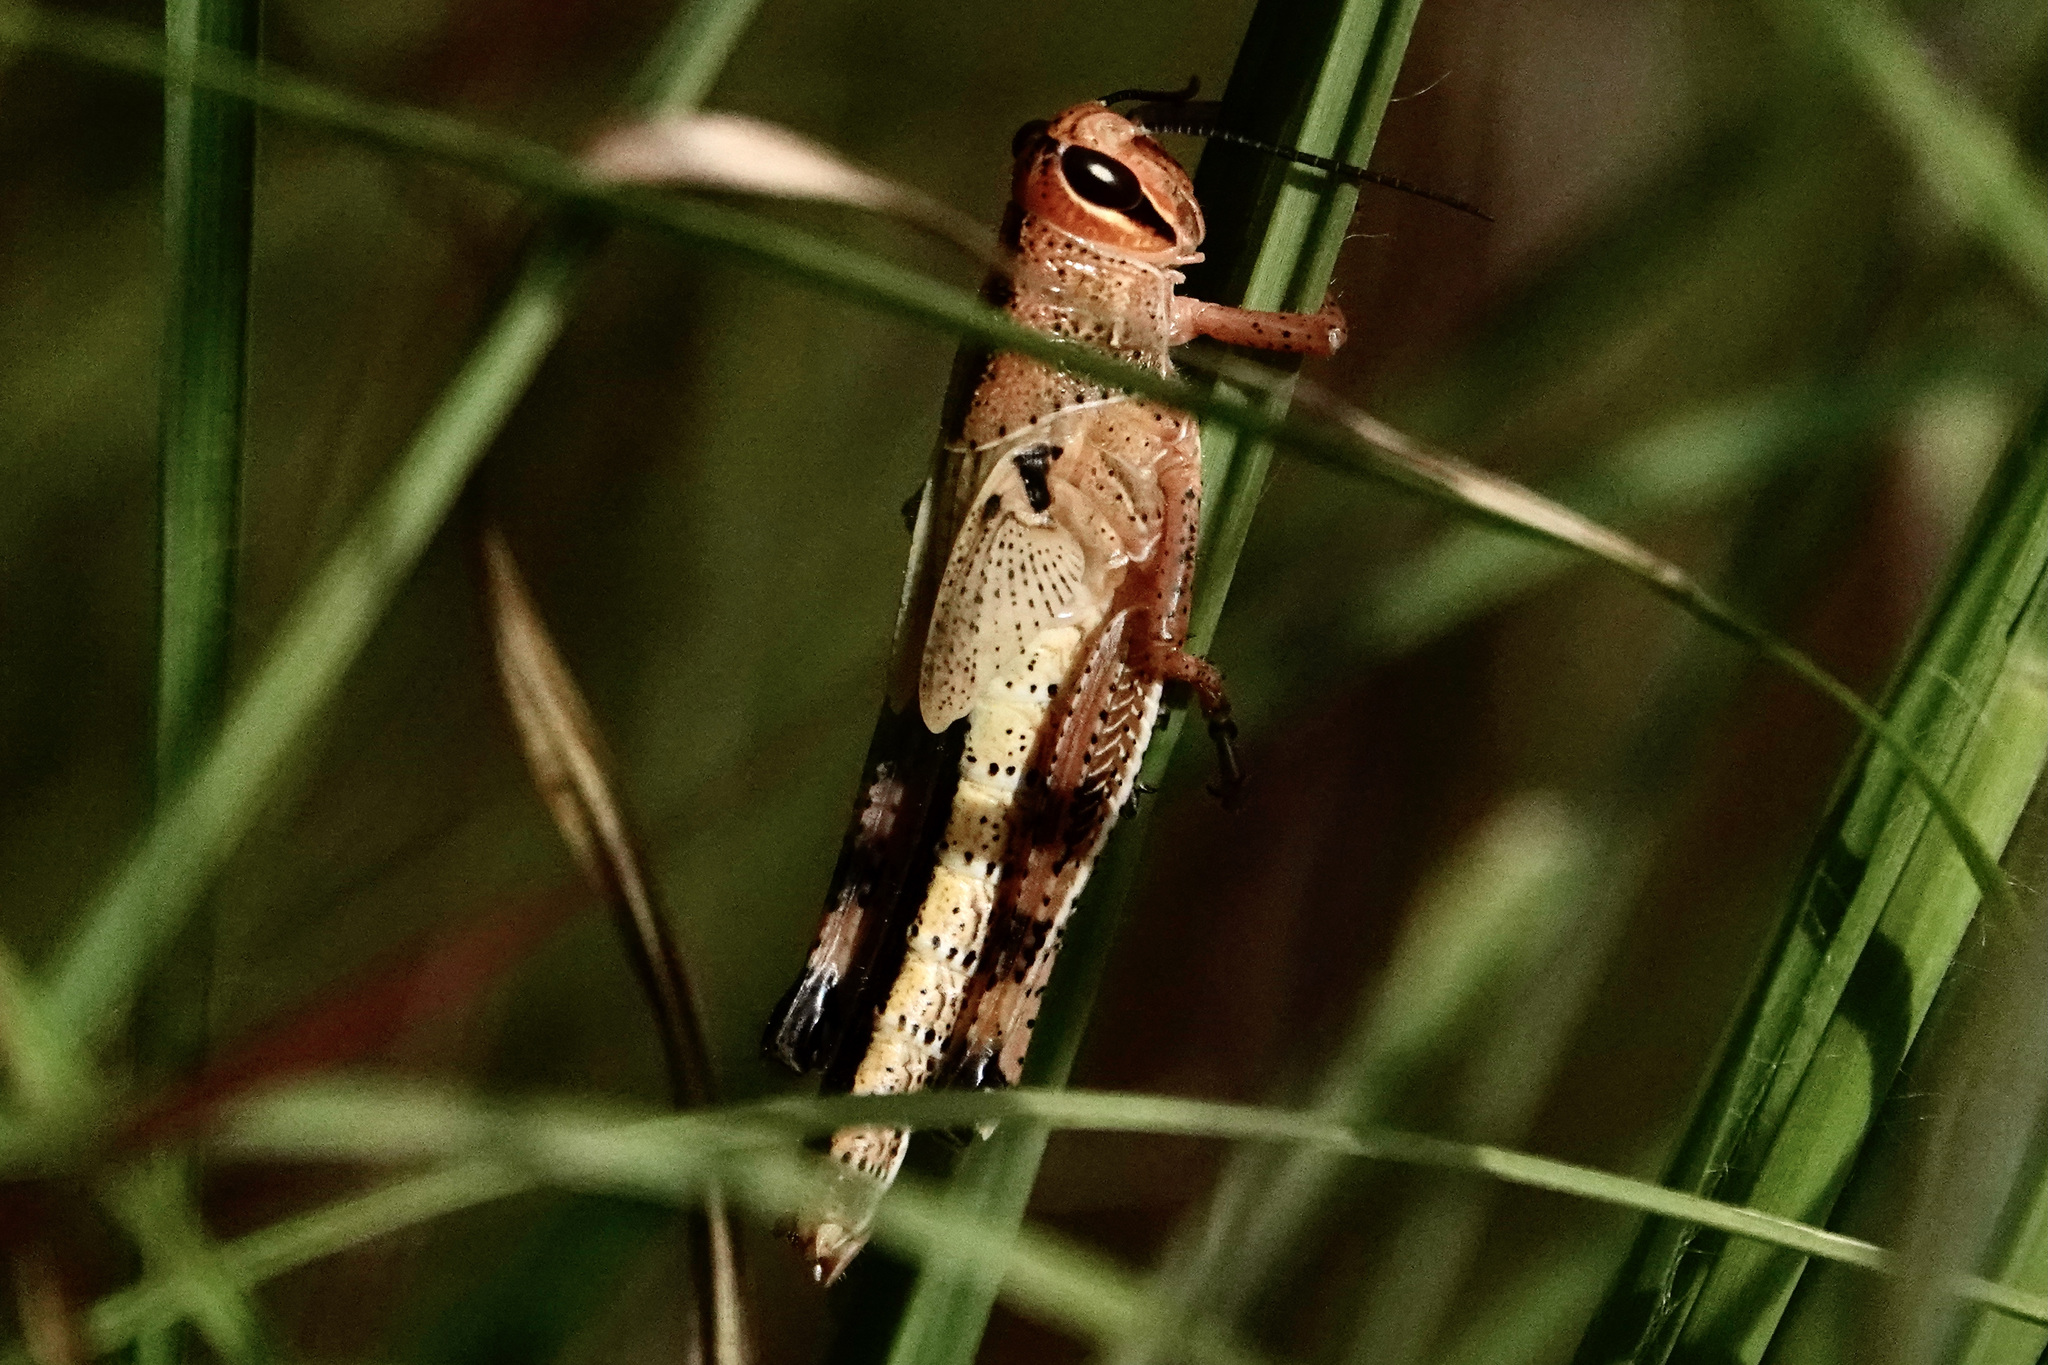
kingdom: Animalia
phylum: Arthropoda
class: Insecta
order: Orthoptera
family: Acrididae
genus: Schistocerca
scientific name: Schistocerca americana
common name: American bird locust
